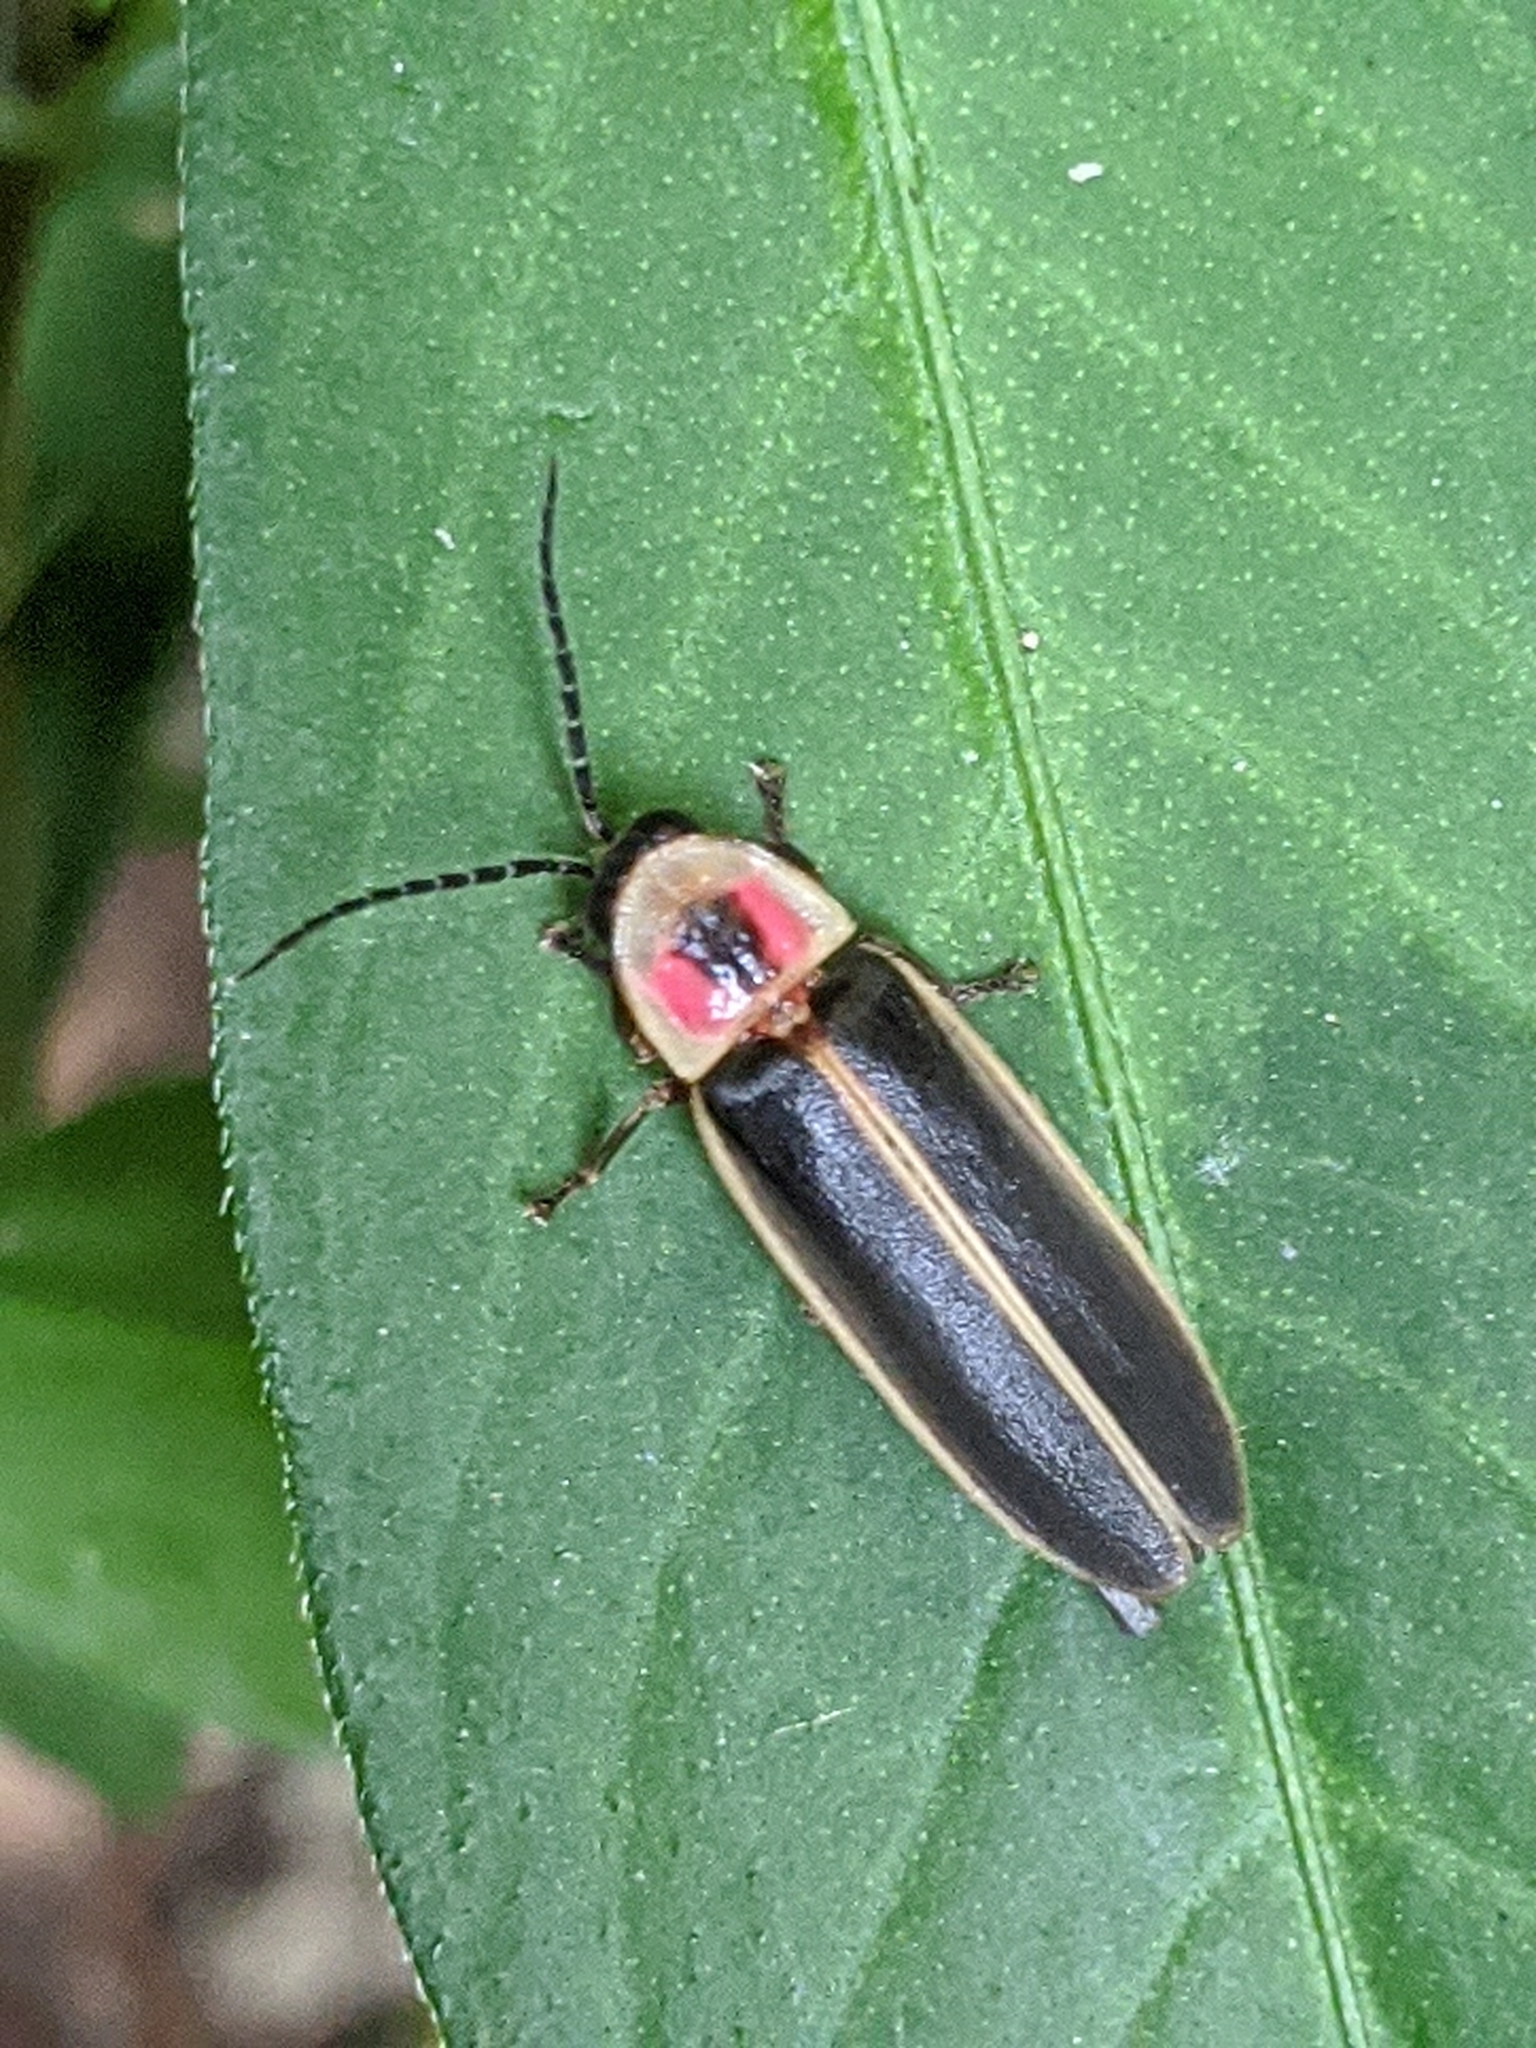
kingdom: Animalia
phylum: Arthropoda
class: Insecta
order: Coleoptera
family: Lampyridae
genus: Photinus
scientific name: Photinus pyralis
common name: Big dipper firefly
